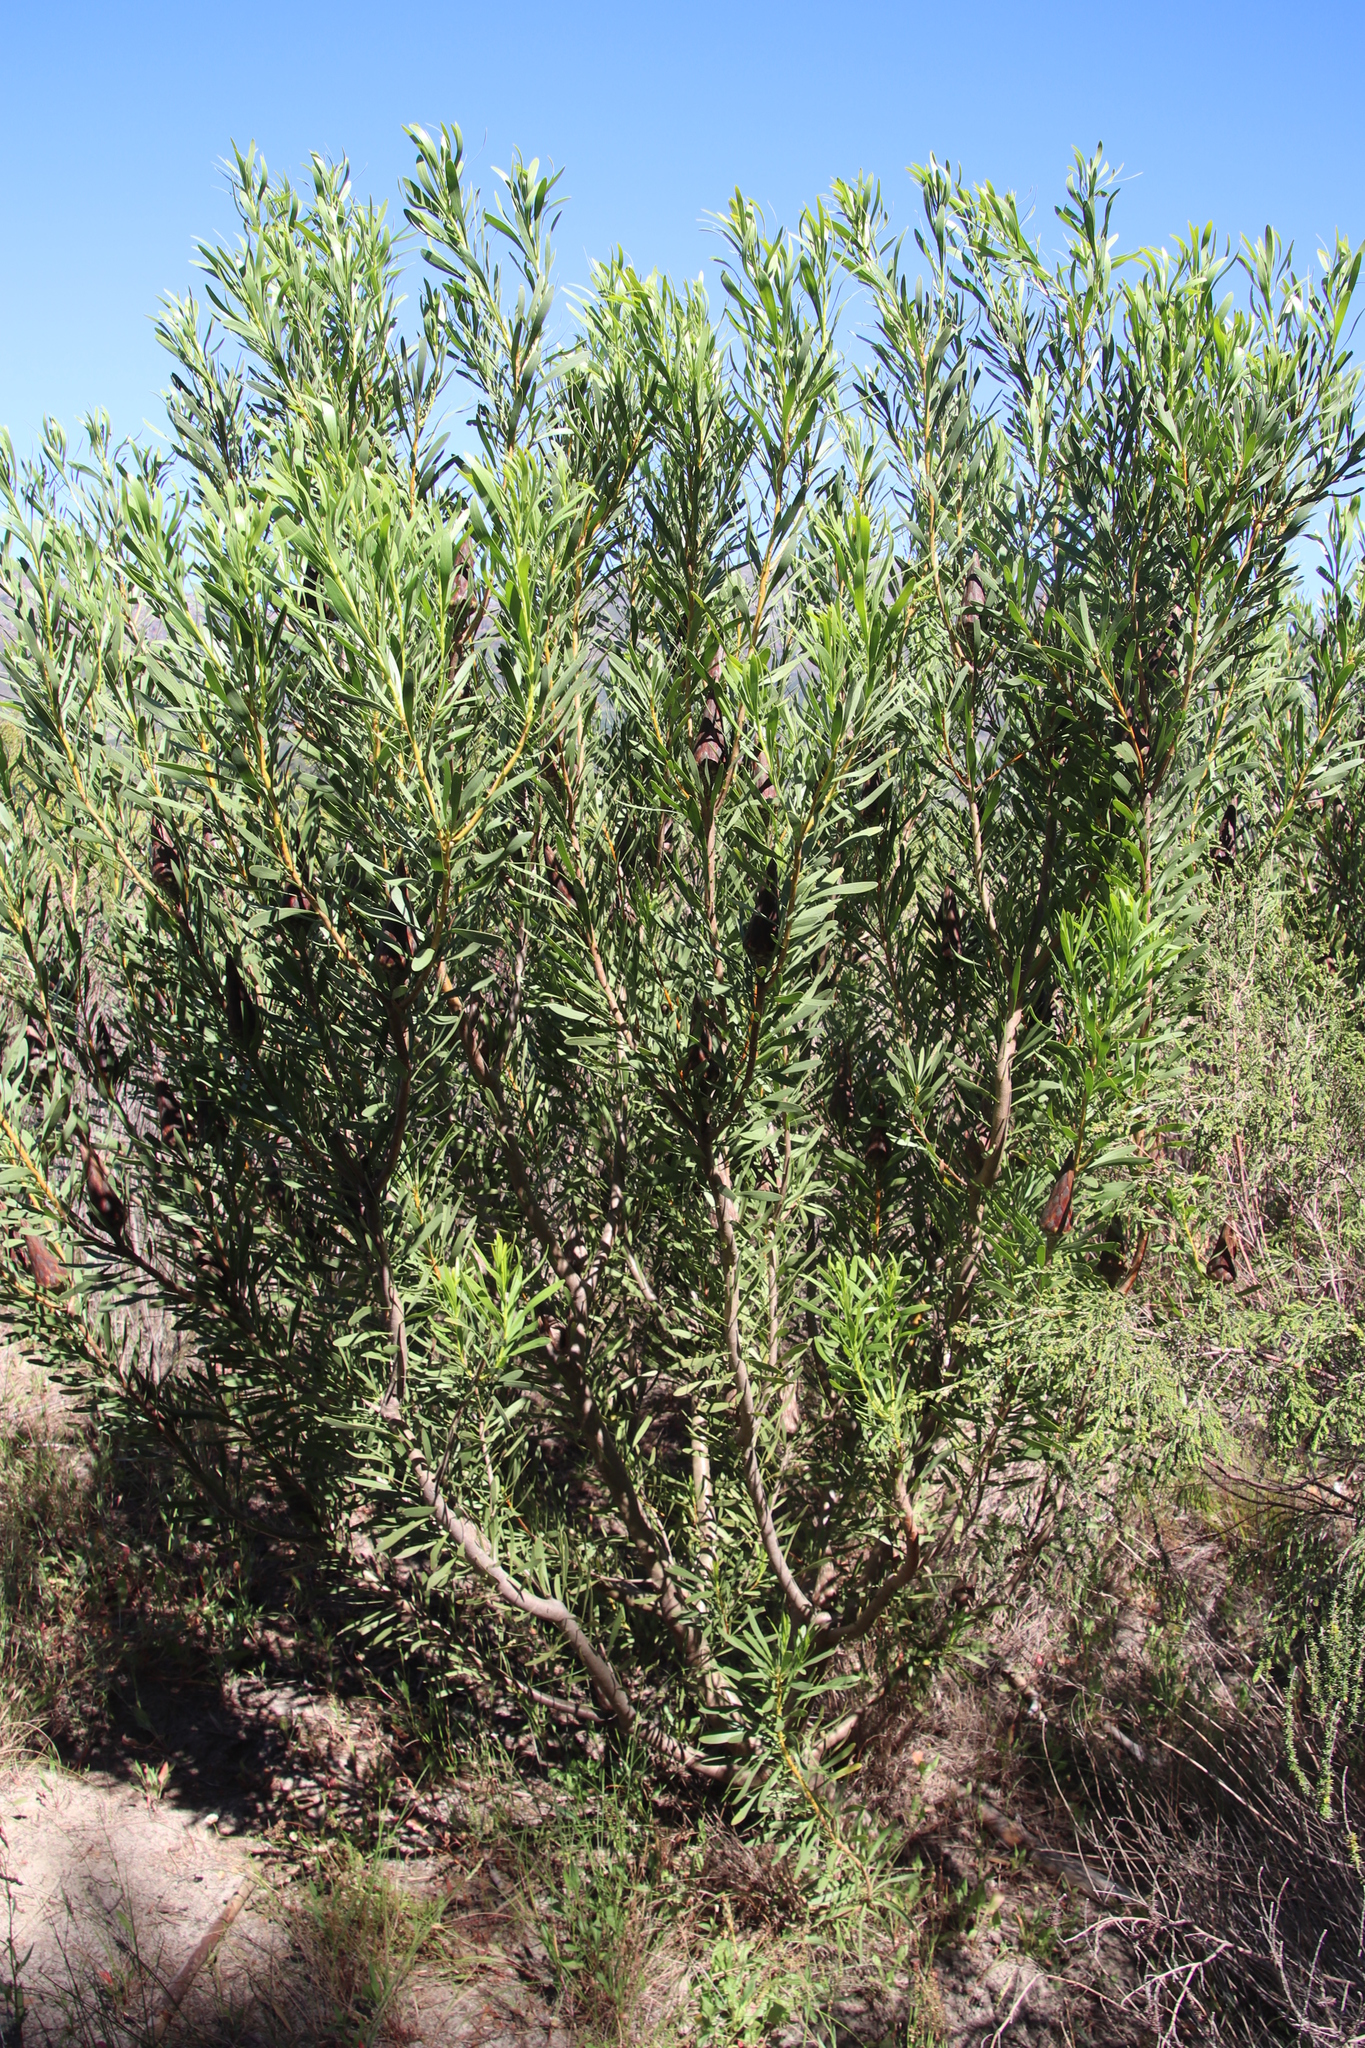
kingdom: Plantae
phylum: Tracheophyta
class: Magnoliopsida
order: Proteales
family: Proteaceae
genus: Protea
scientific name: Protea repens
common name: Sugarbush
